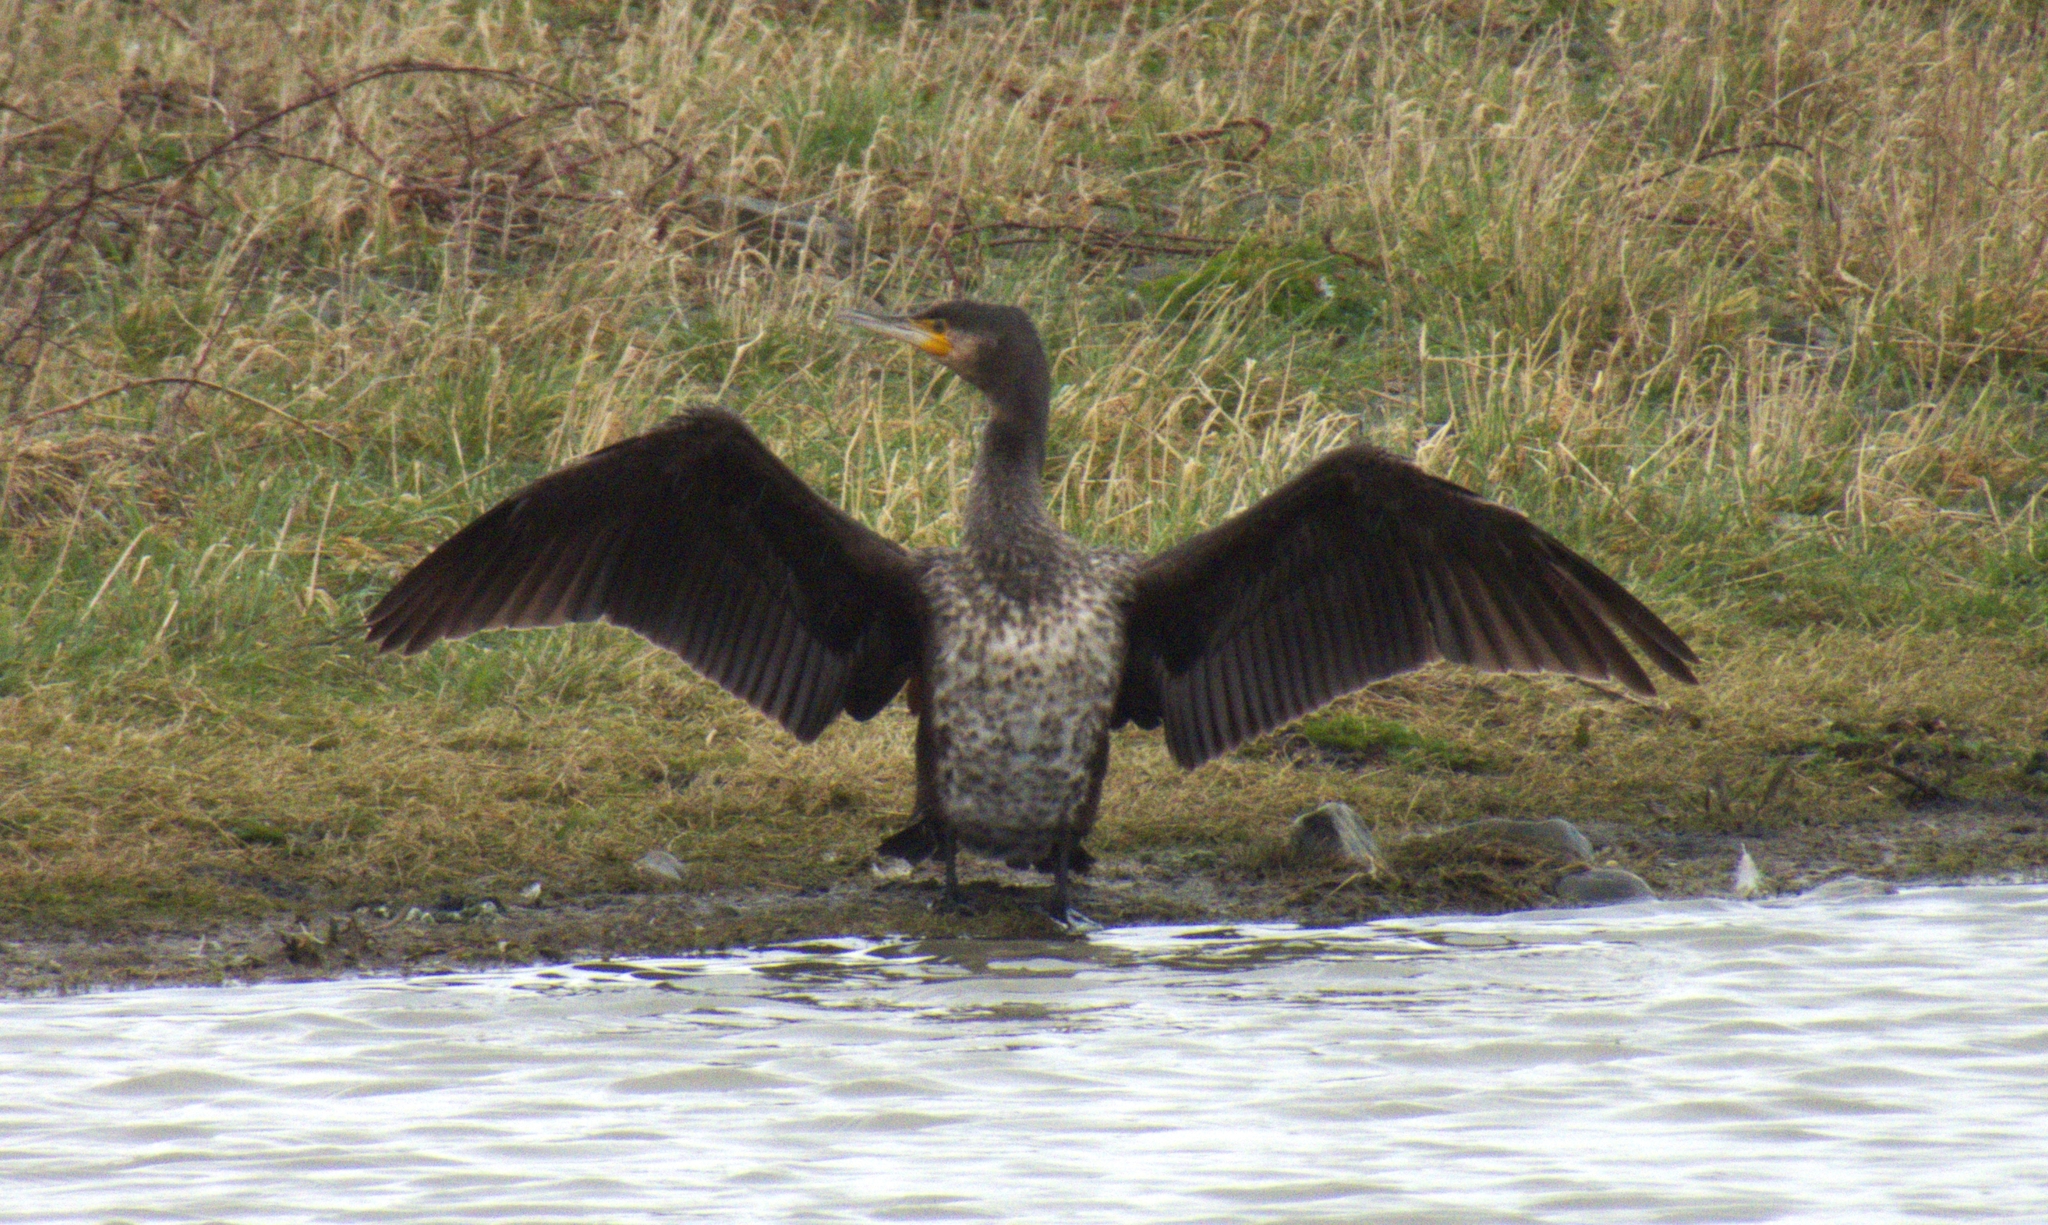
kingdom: Animalia
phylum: Chordata
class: Aves
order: Suliformes
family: Phalacrocoracidae
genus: Phalacrocorax
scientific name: Phalacrocorax carbo
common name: Great cormorant
